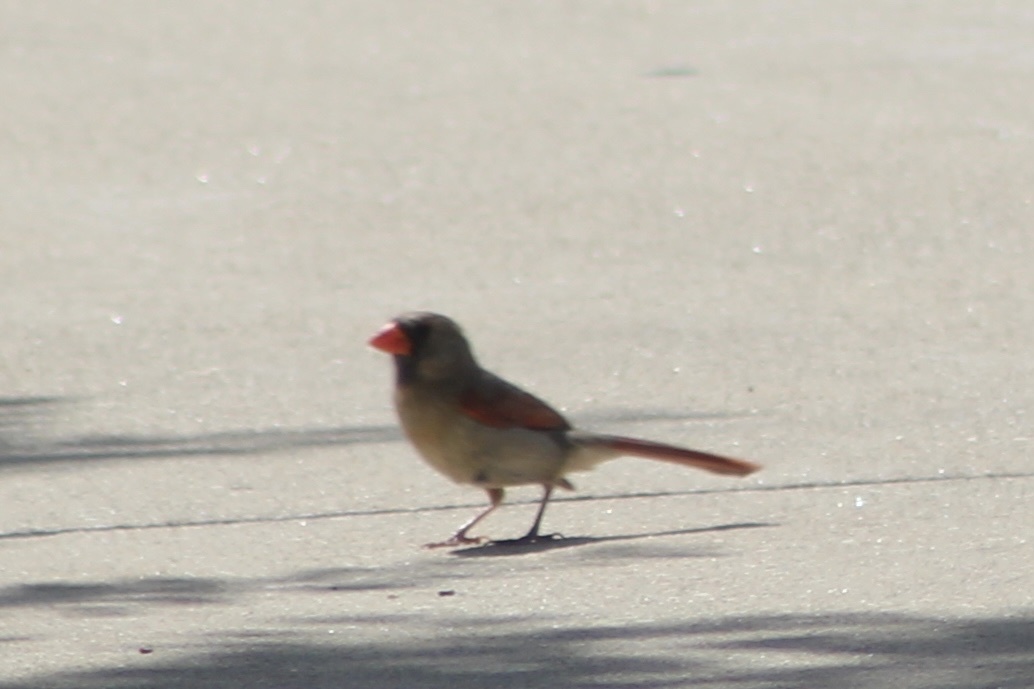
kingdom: Animalia
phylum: Chordata
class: Aves
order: Passeriformes
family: Cardinalidae
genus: Cardinalis
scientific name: Cardinalis cardinalis
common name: Northern cardinal
